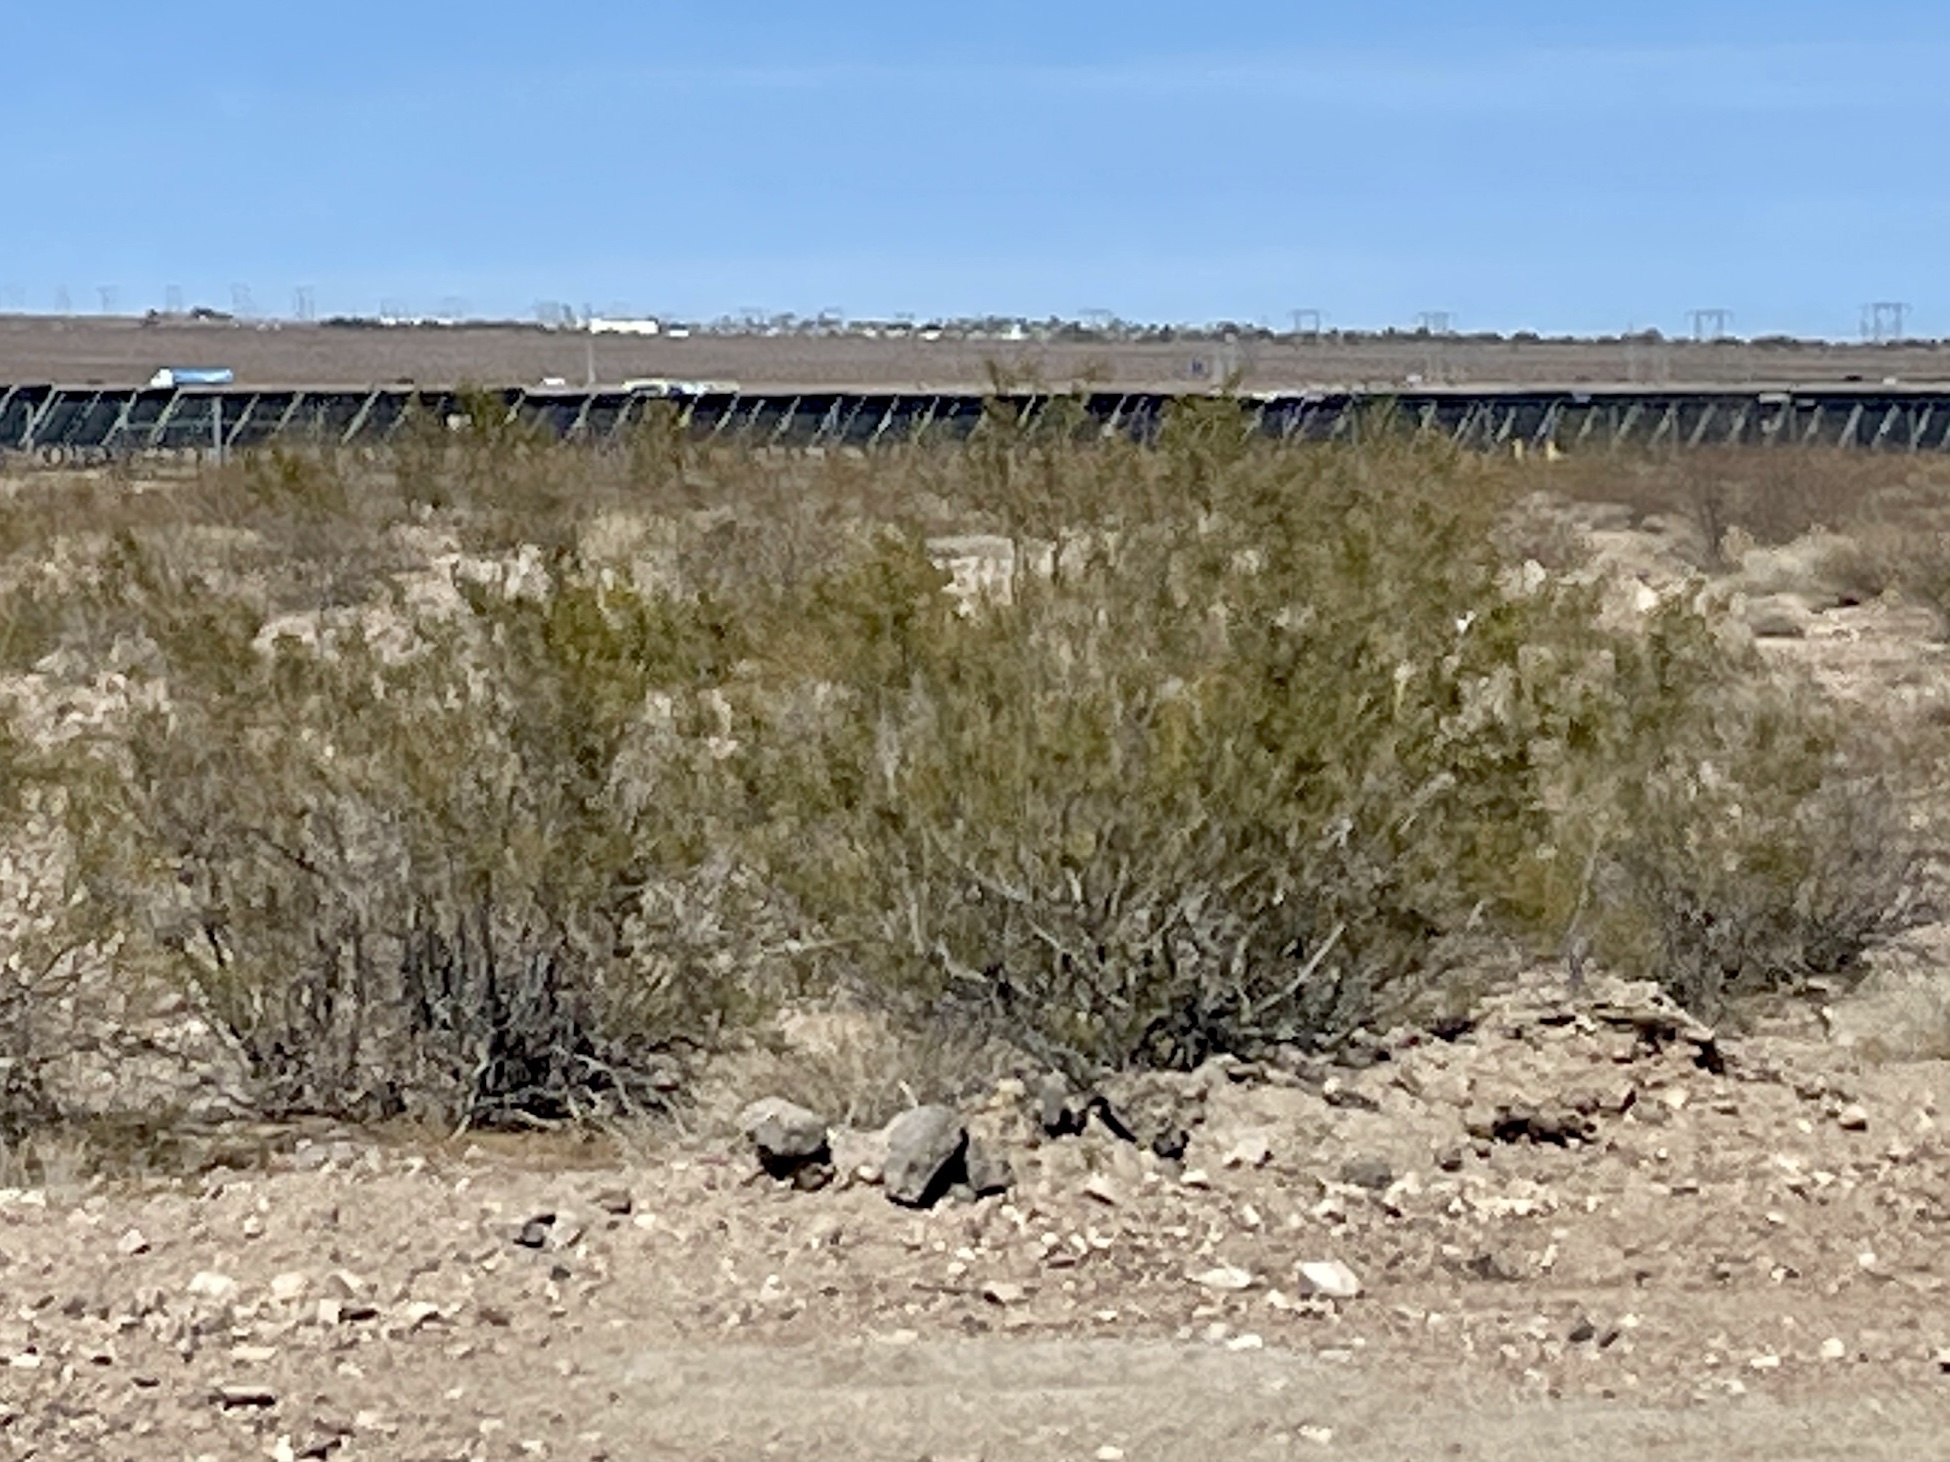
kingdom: Plantae
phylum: Tracheophyta
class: Magnoliopsida
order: Zygophyllales
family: Zygophyllaceae
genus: Larrea
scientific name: Larrea tridentata
